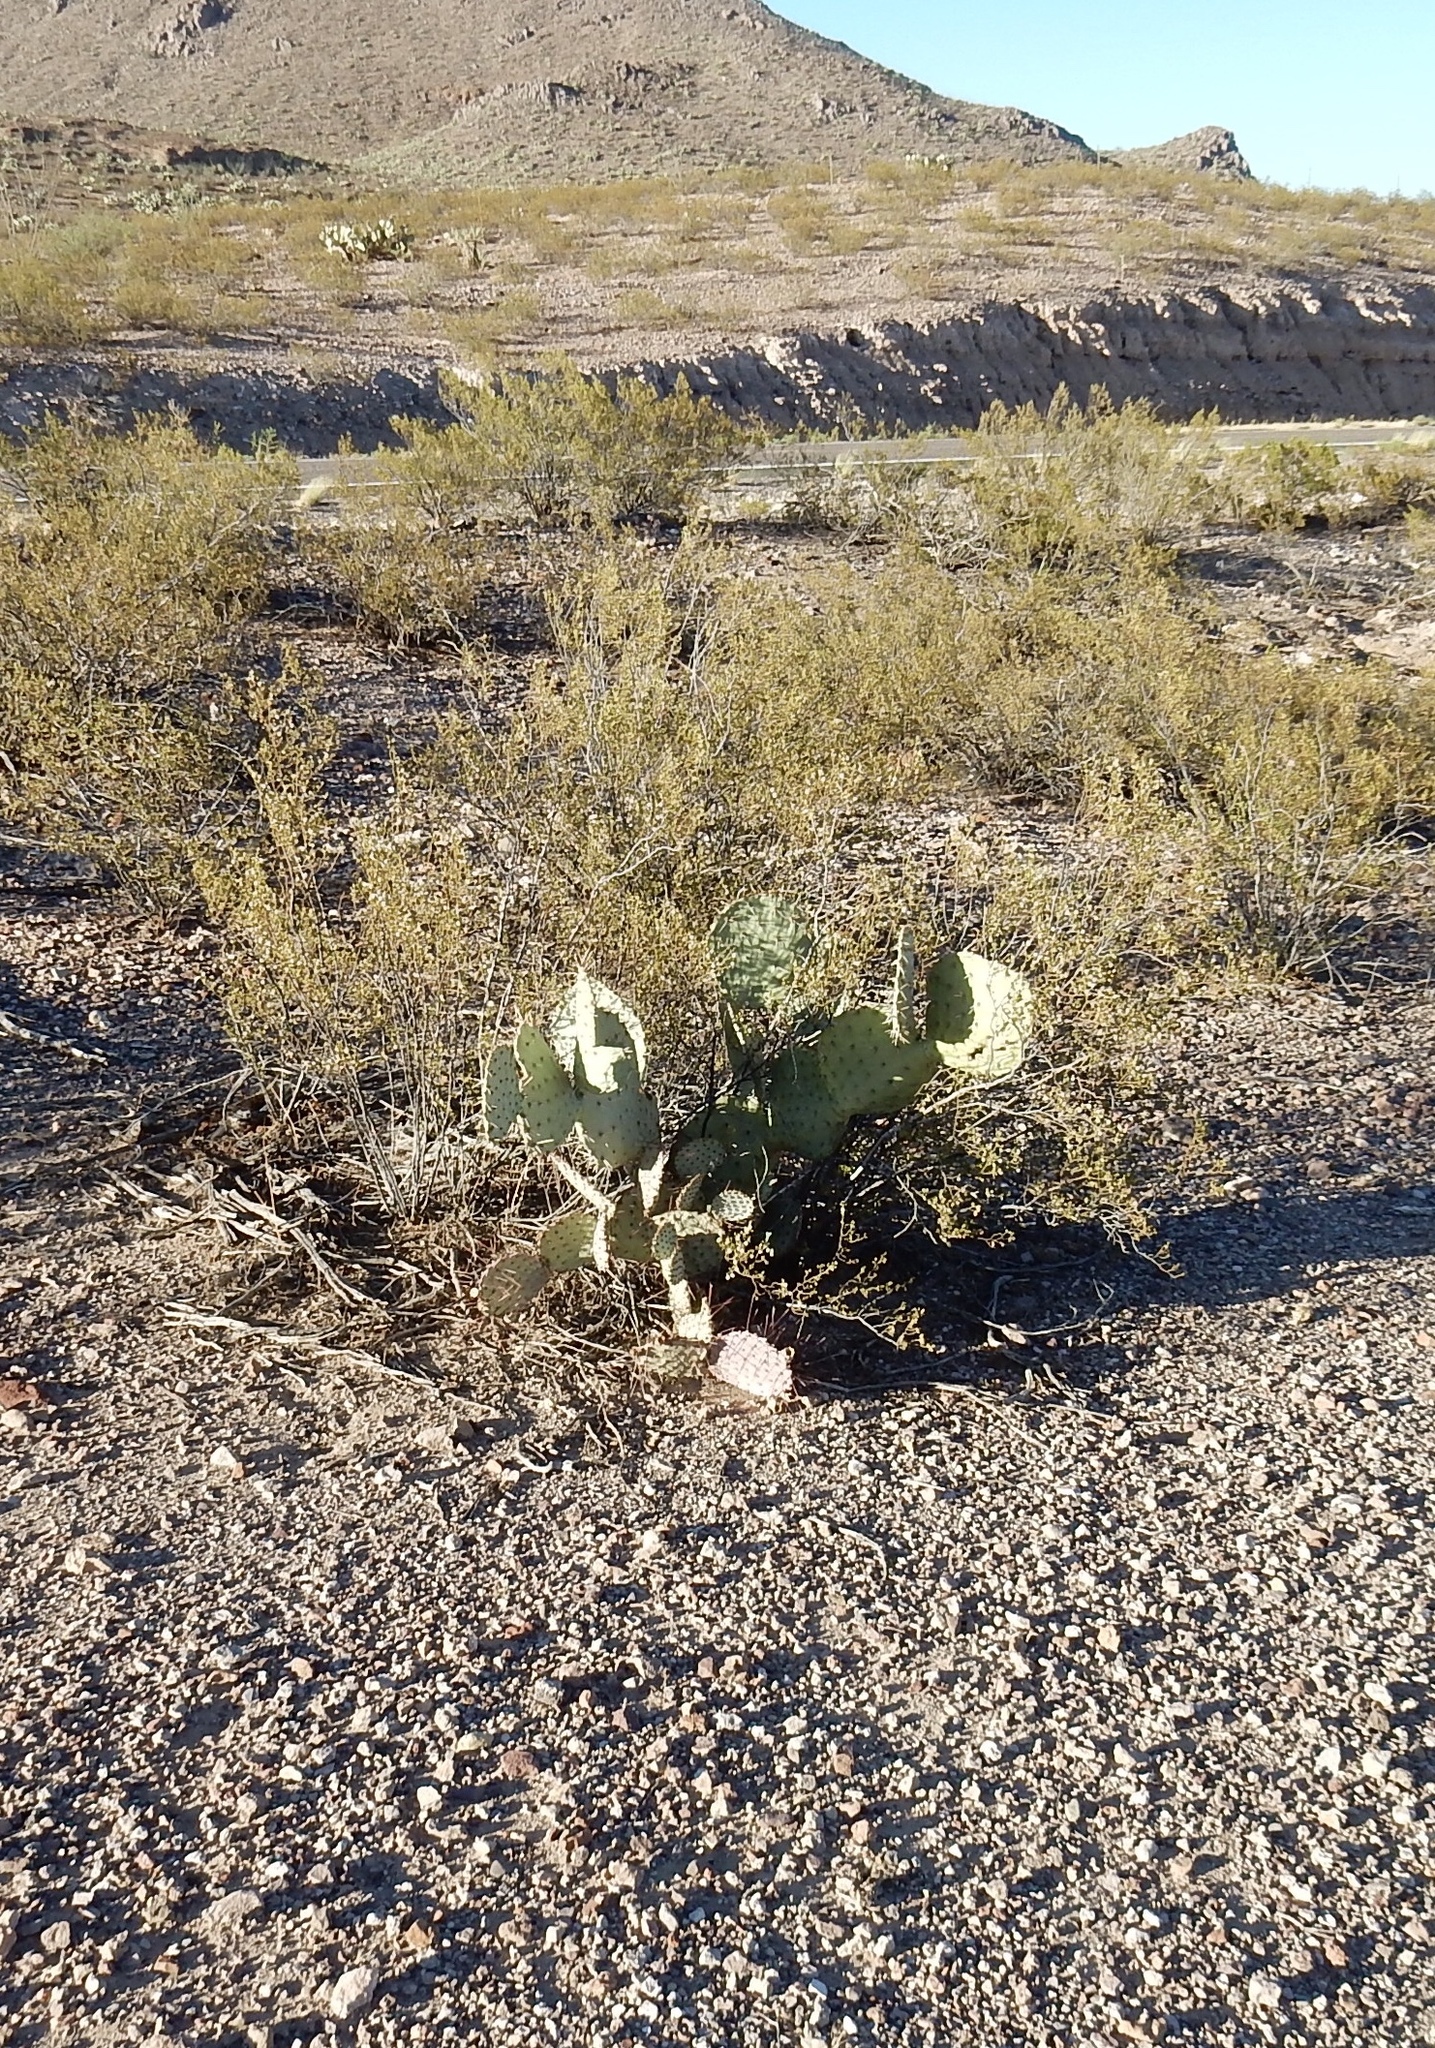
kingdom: Plantae
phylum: Tracheophyta
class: Magnoliopsida
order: Zygophyllales
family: Zygophyllaceae
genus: Larrea
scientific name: Larrea tridentata
